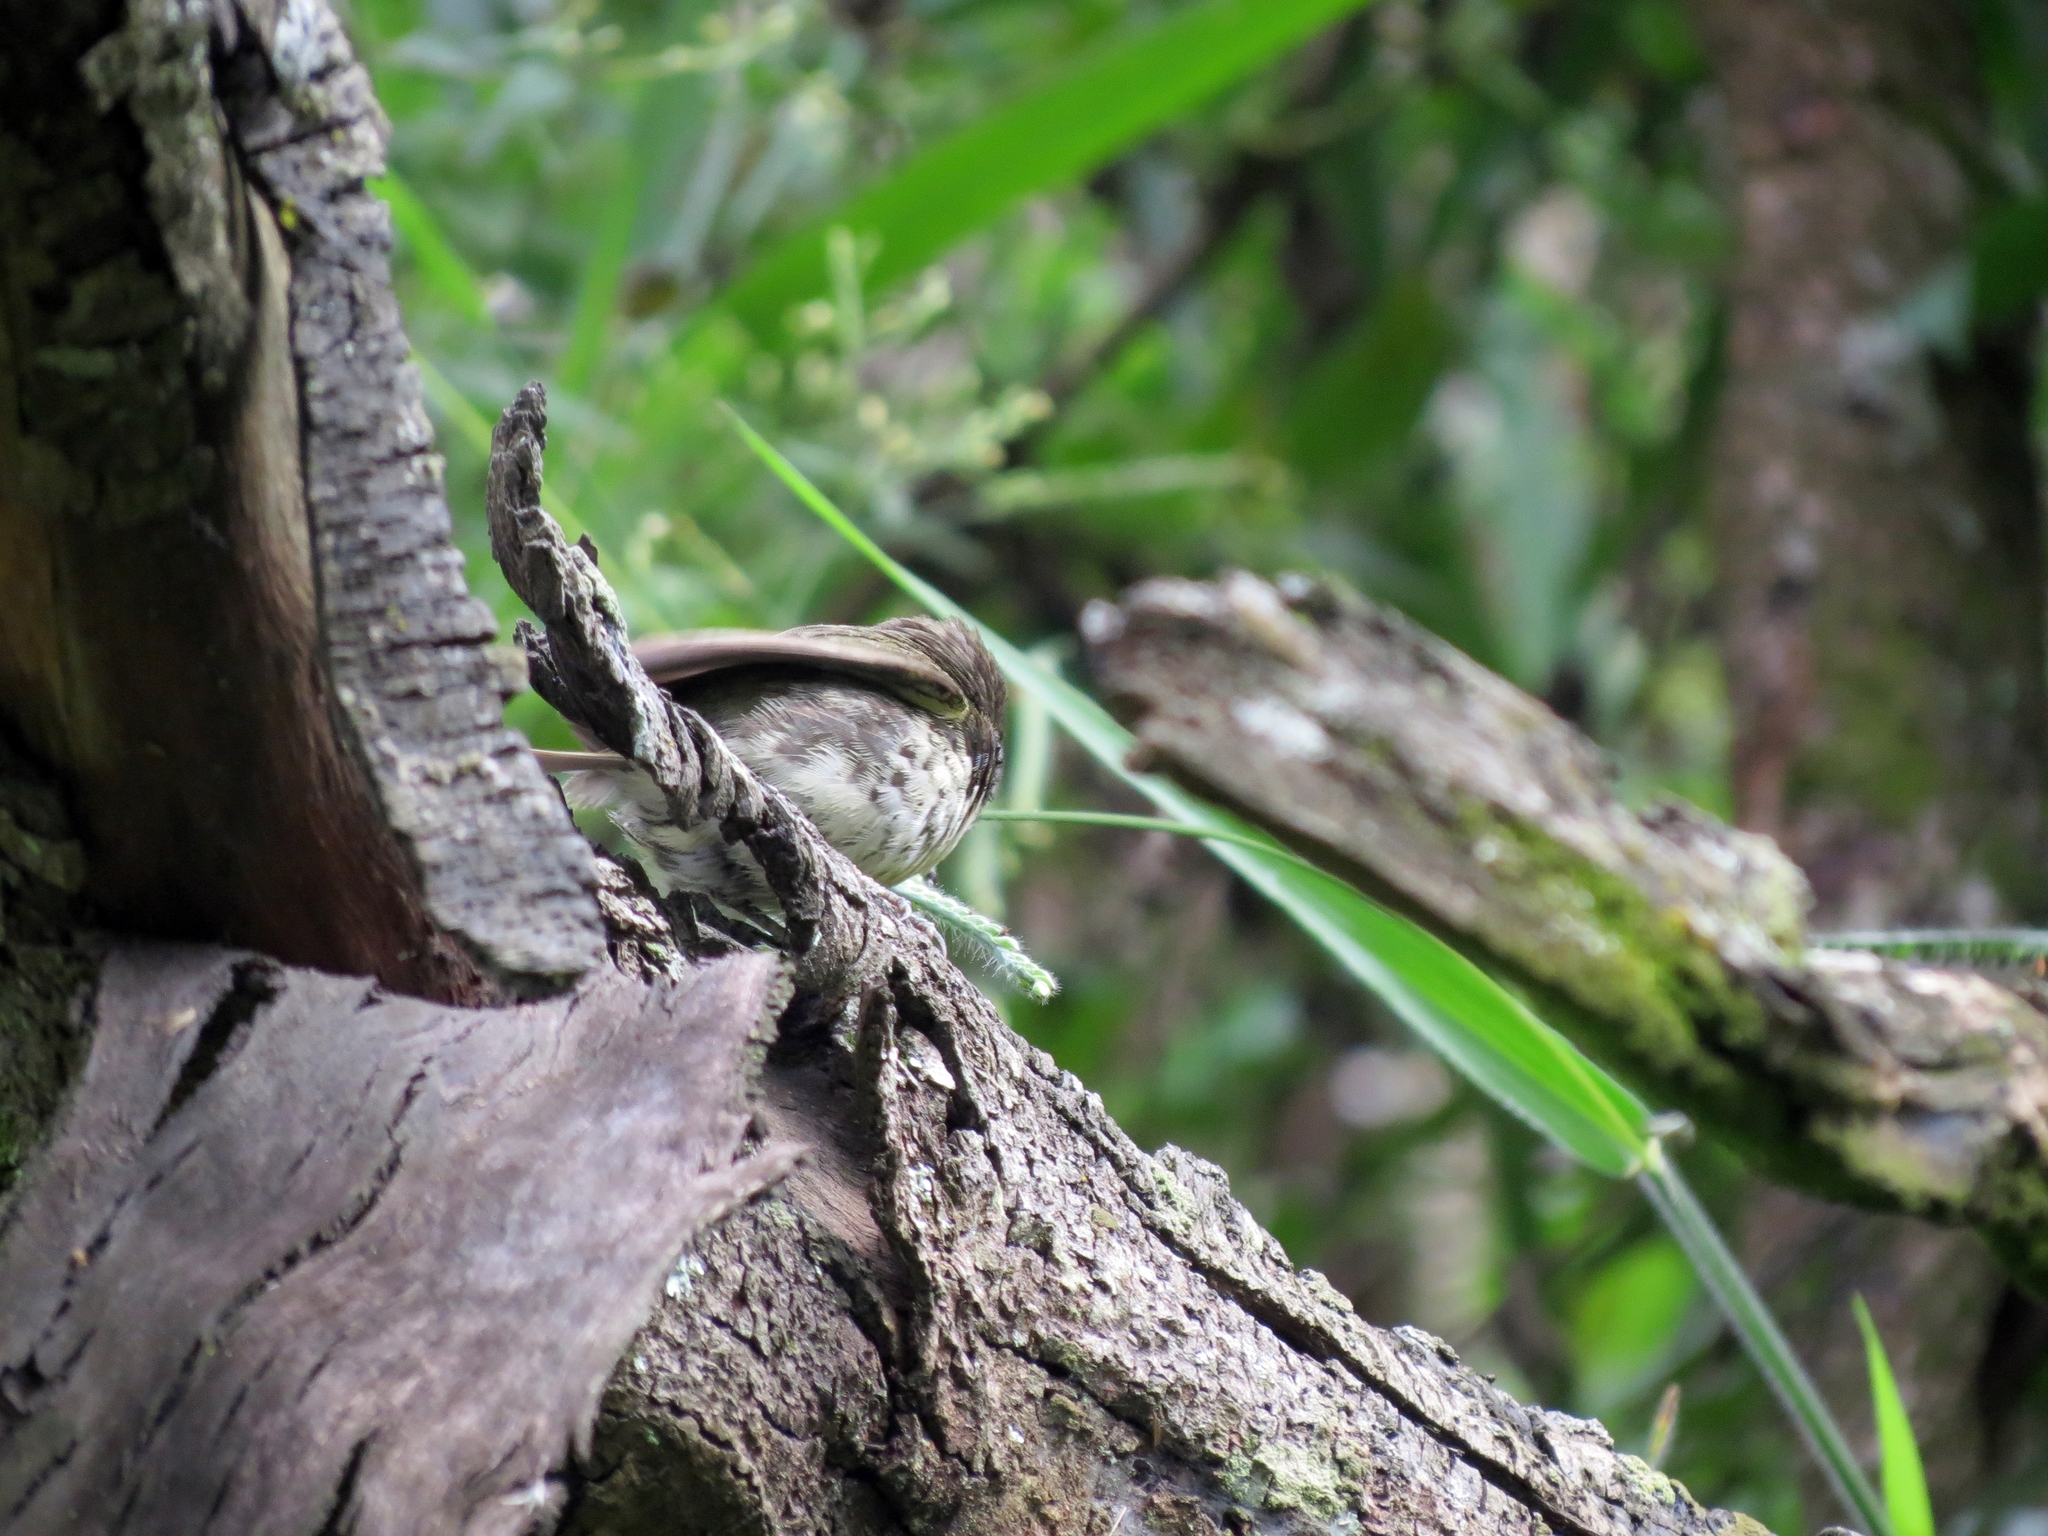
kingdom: Animalia
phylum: Chordata
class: Aves
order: Passeriformes
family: Thraupidae
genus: Sporophila
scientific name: Sporophila nigricollis
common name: Yellow-bellied seedeater
